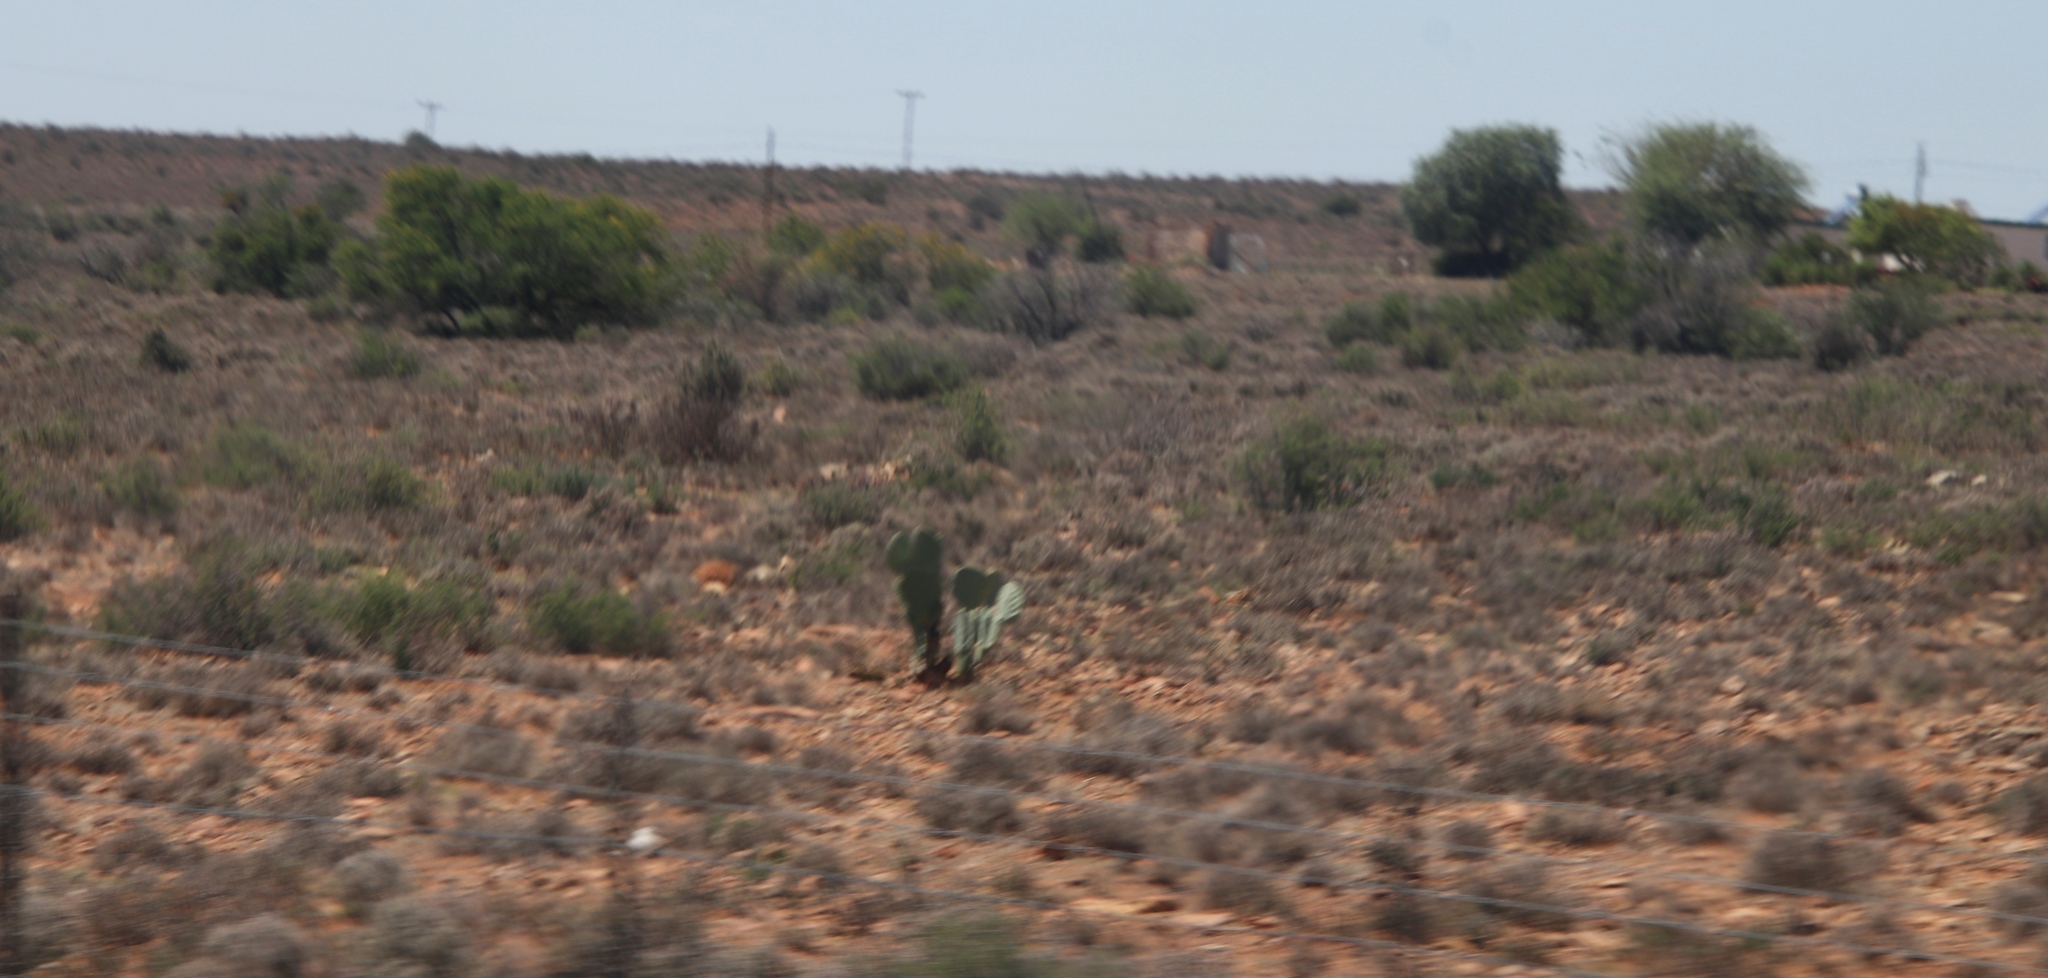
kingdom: Plantae
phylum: Tracheophyta
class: Magnoliopsida
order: Caryophyllales
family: Cactaceae
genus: Opuntia
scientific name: Opuntia ficus-indica
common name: Barbary fig
